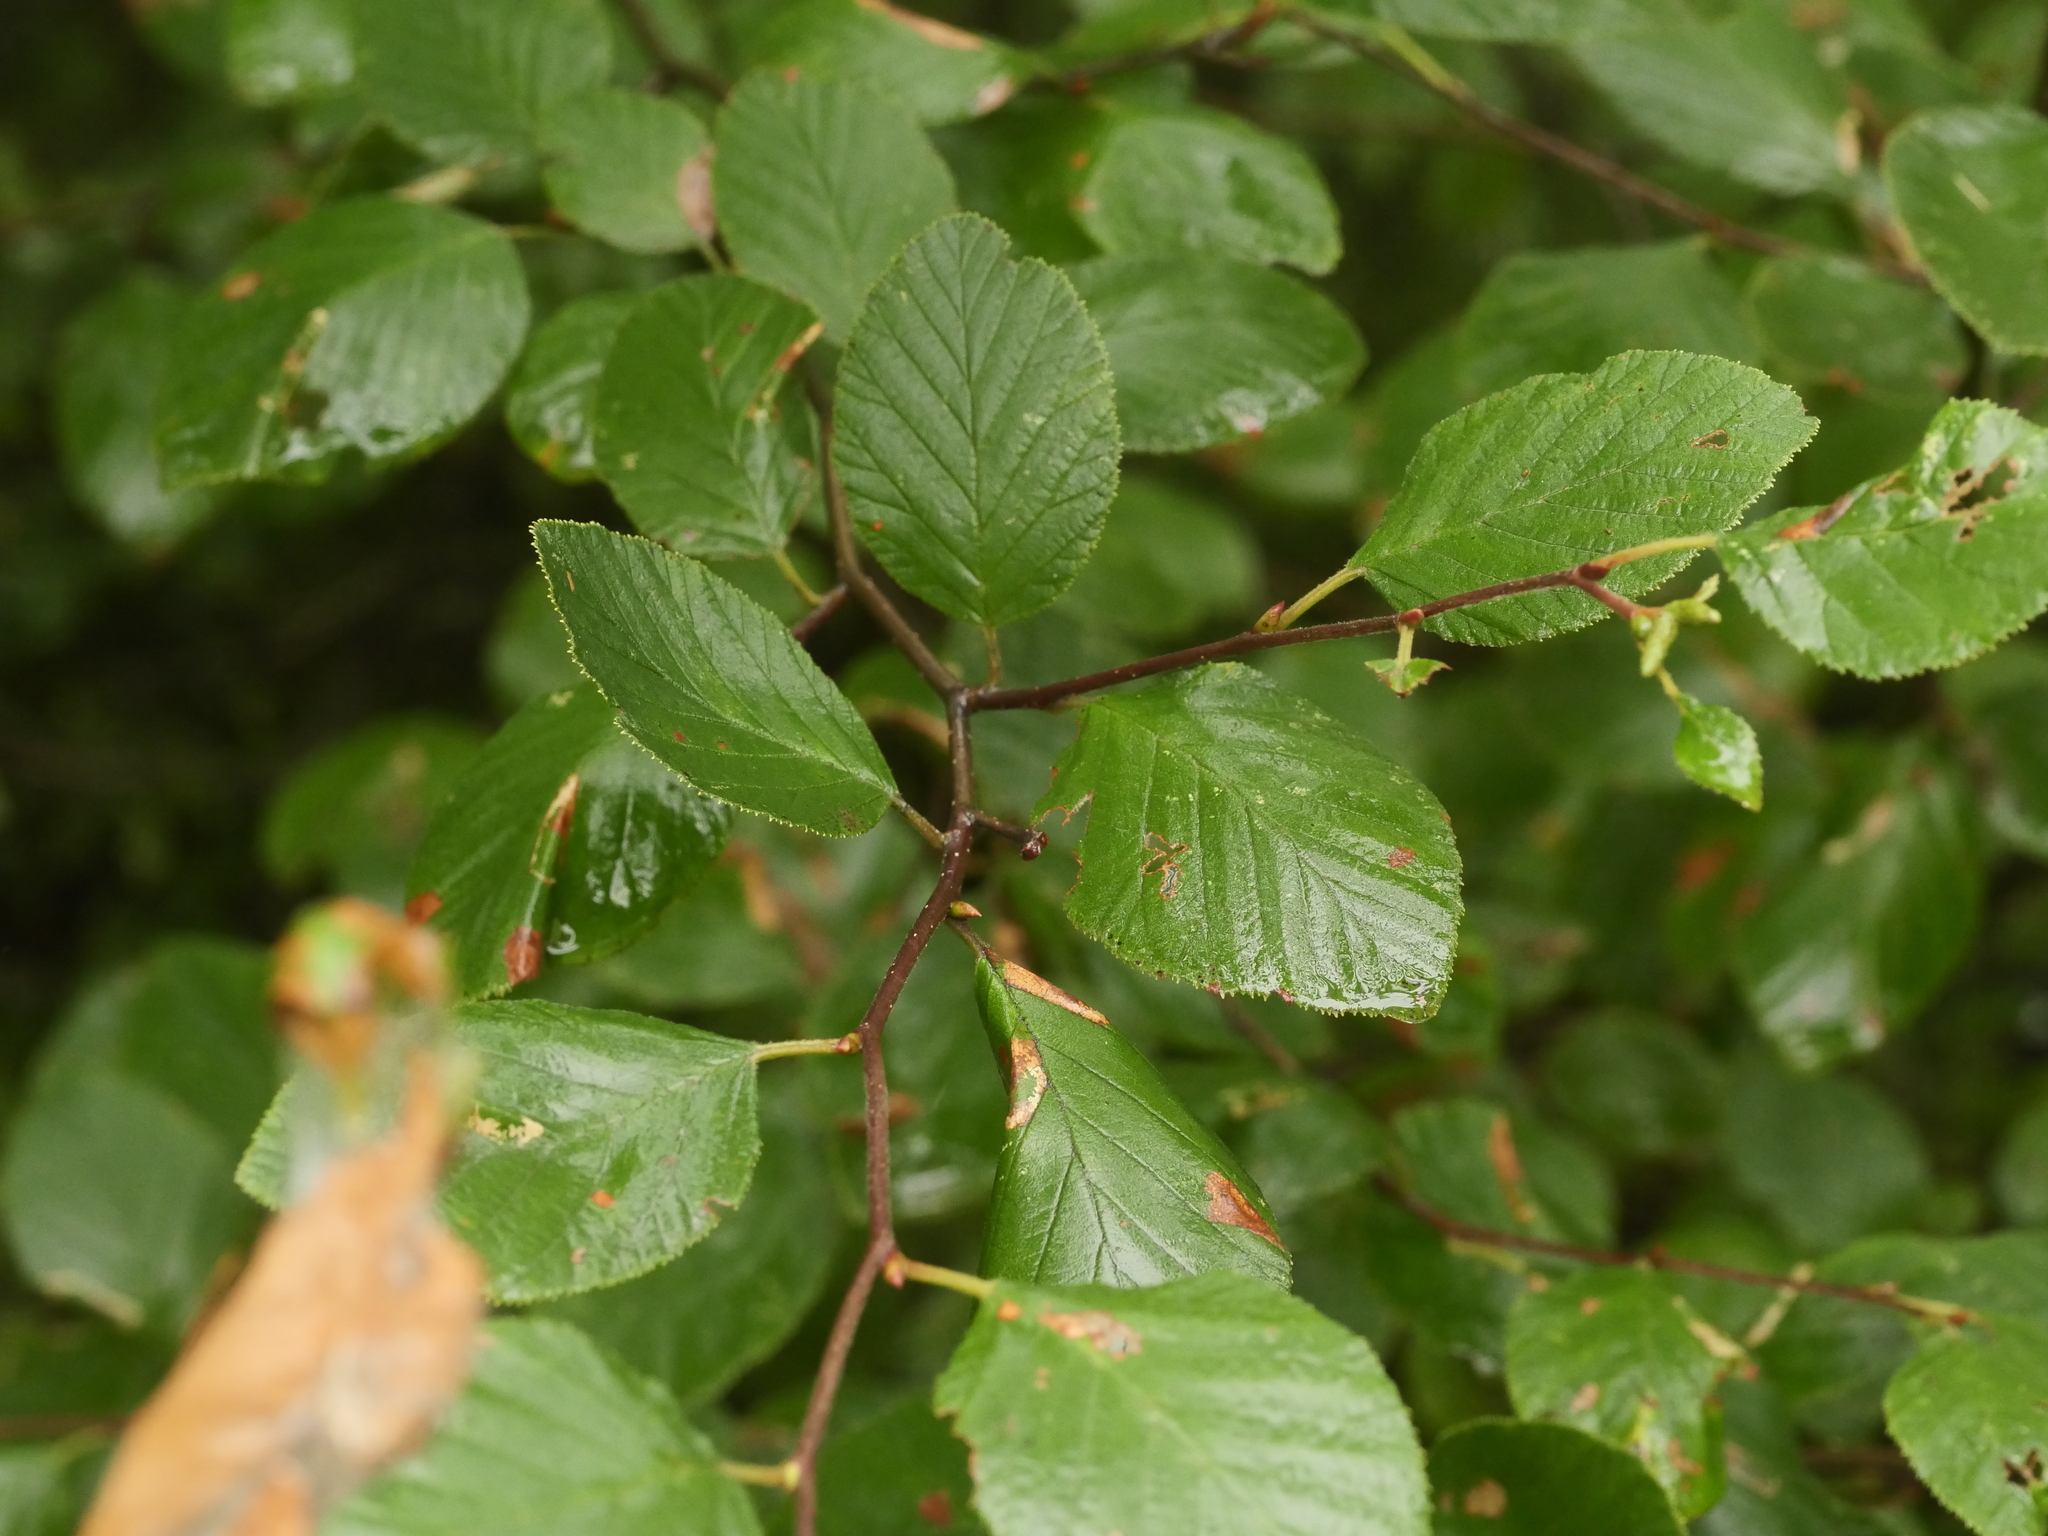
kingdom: Plantae
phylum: Tracheophyta
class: Magnoliopsida
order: Fagales
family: Betulaceae
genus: Alnus
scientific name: Alnus alnobetula
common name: Green alder
